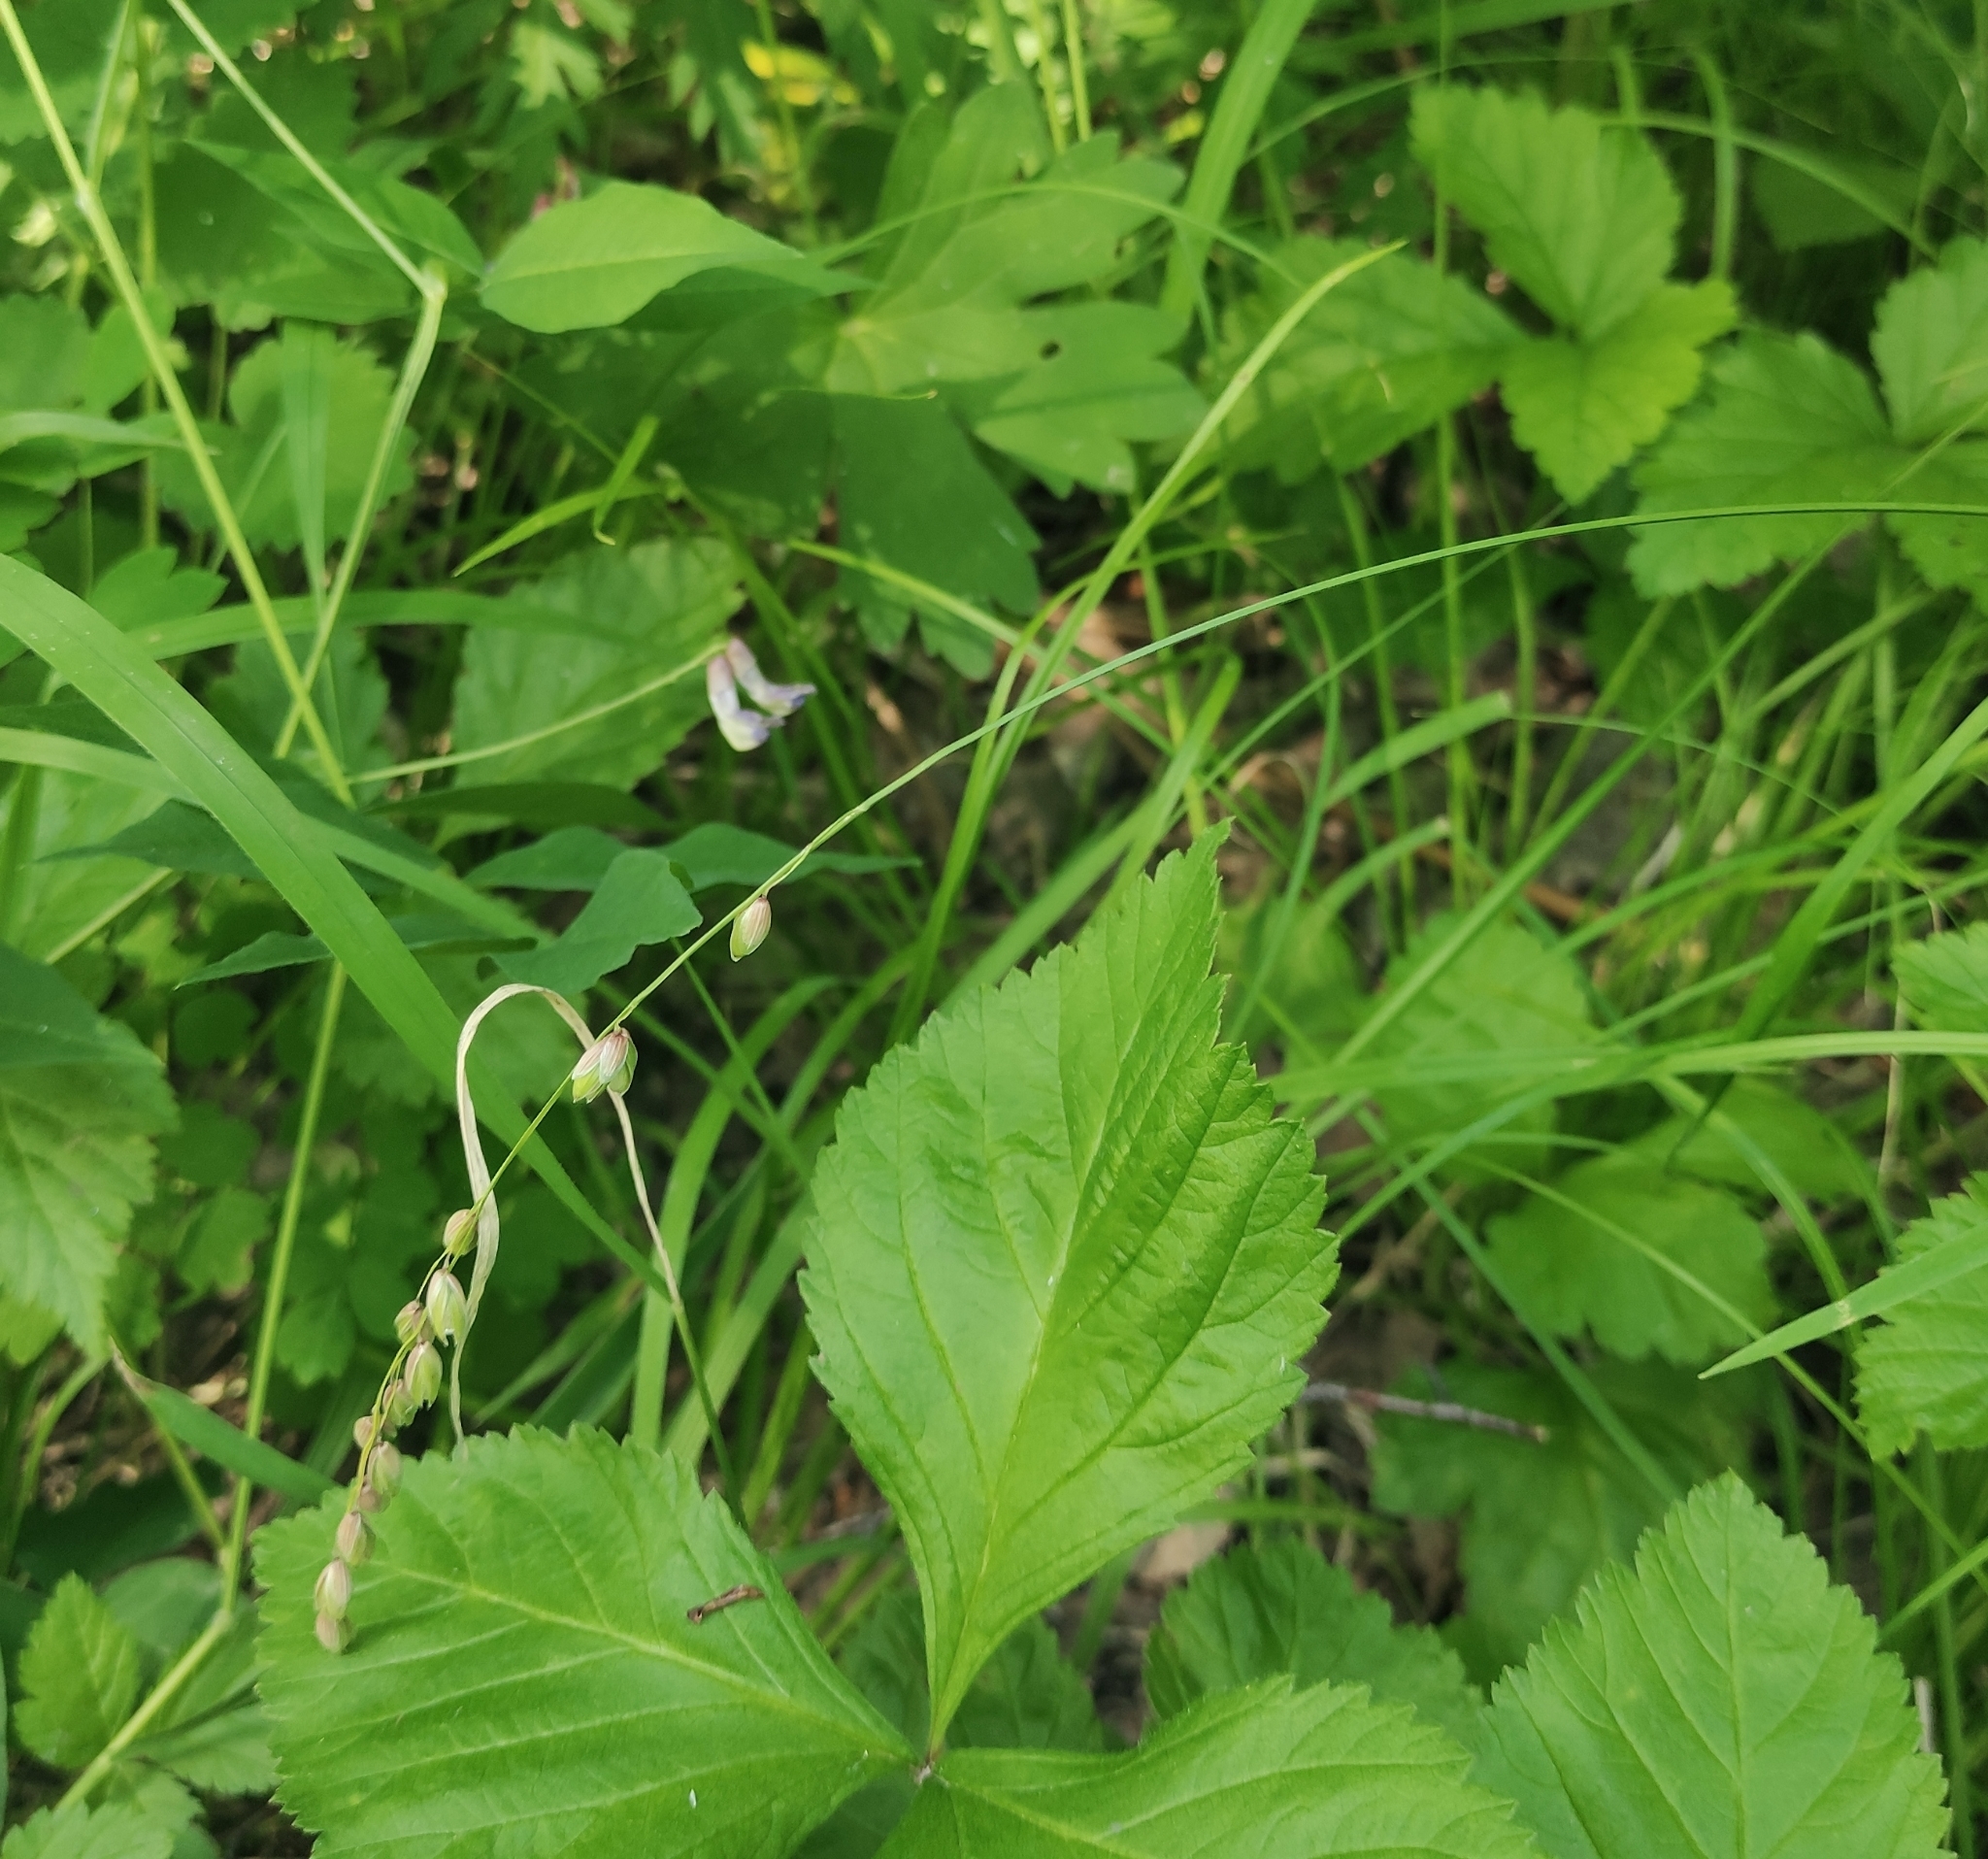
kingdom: Plantae
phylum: Tracheophyta
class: Liliopsida
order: Poales
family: Poaceae
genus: Melica
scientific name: Melica nutans
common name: Mountain melick
